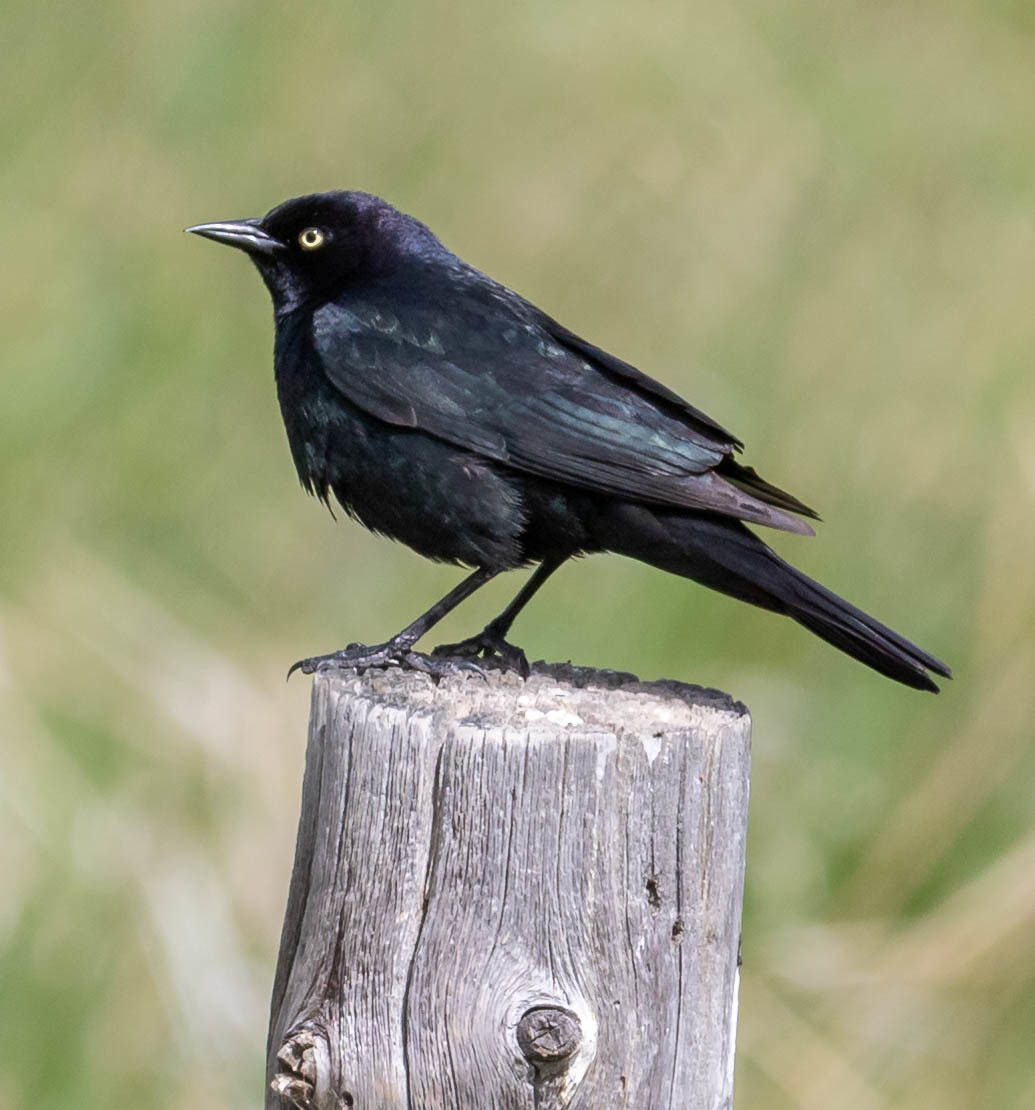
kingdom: Animalia
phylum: Chordata
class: Aves
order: Passeriformes
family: Icteridae
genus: Euphagus
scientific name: Euphagus cyanocephalus
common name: Brewer's blackbird
